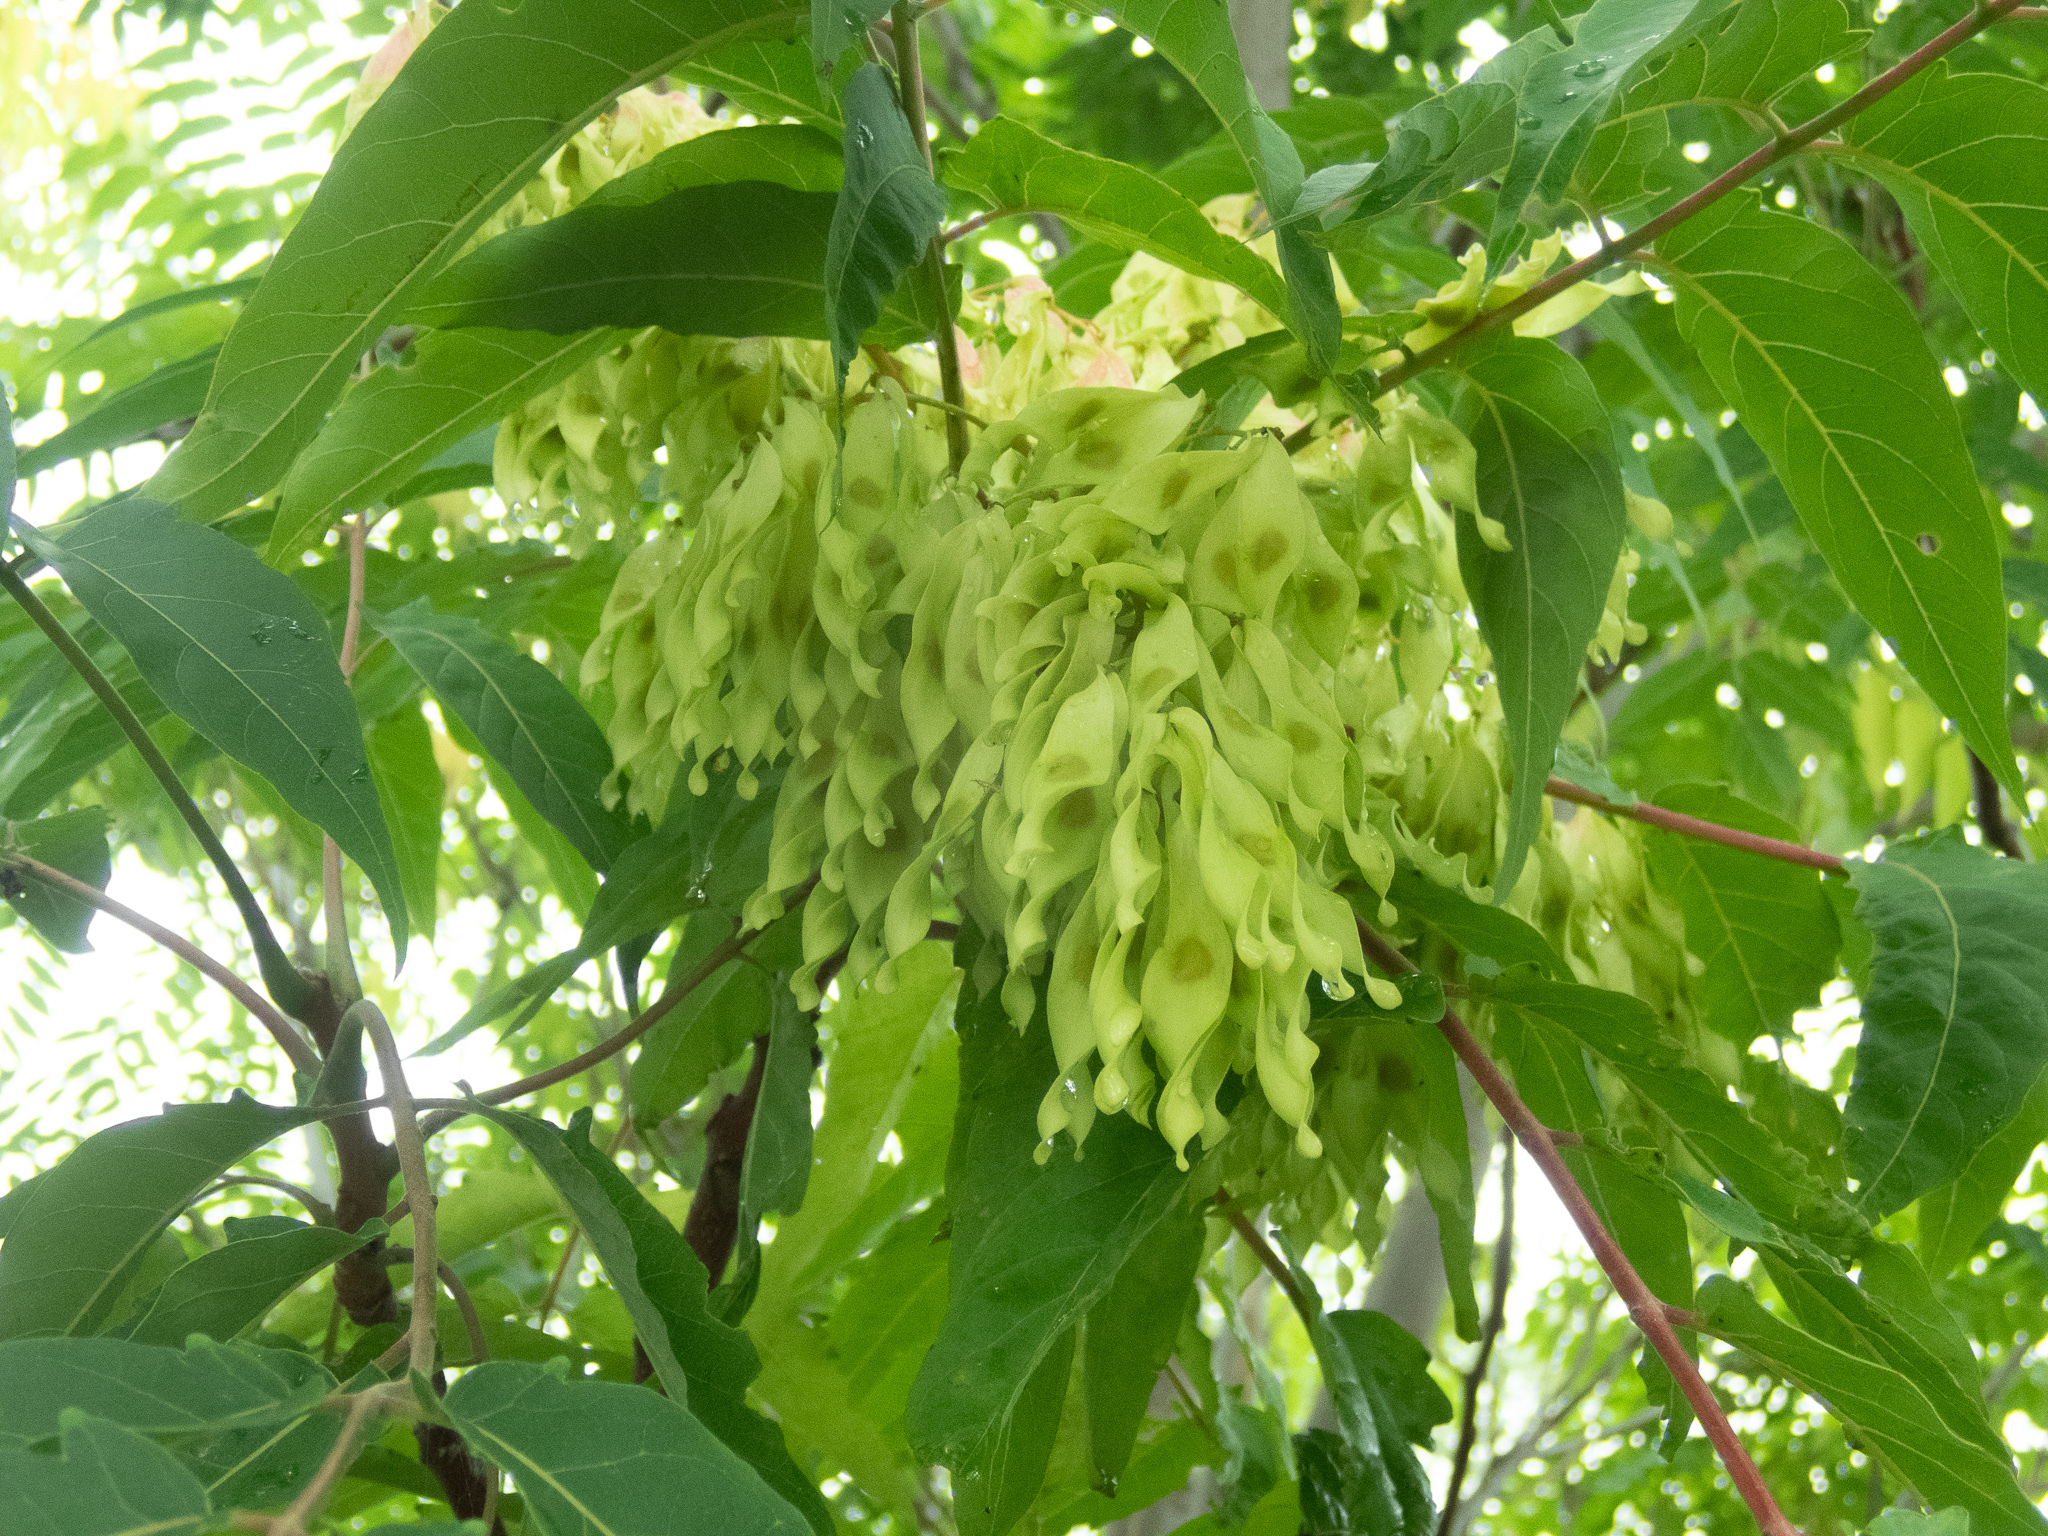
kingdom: Plantae
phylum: Tracheophyta
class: Magnoliopsida
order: Sapindales
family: Simaroubaceae
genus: Ailanthus
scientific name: Ailanthus altissima
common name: Tree-of-heaven
